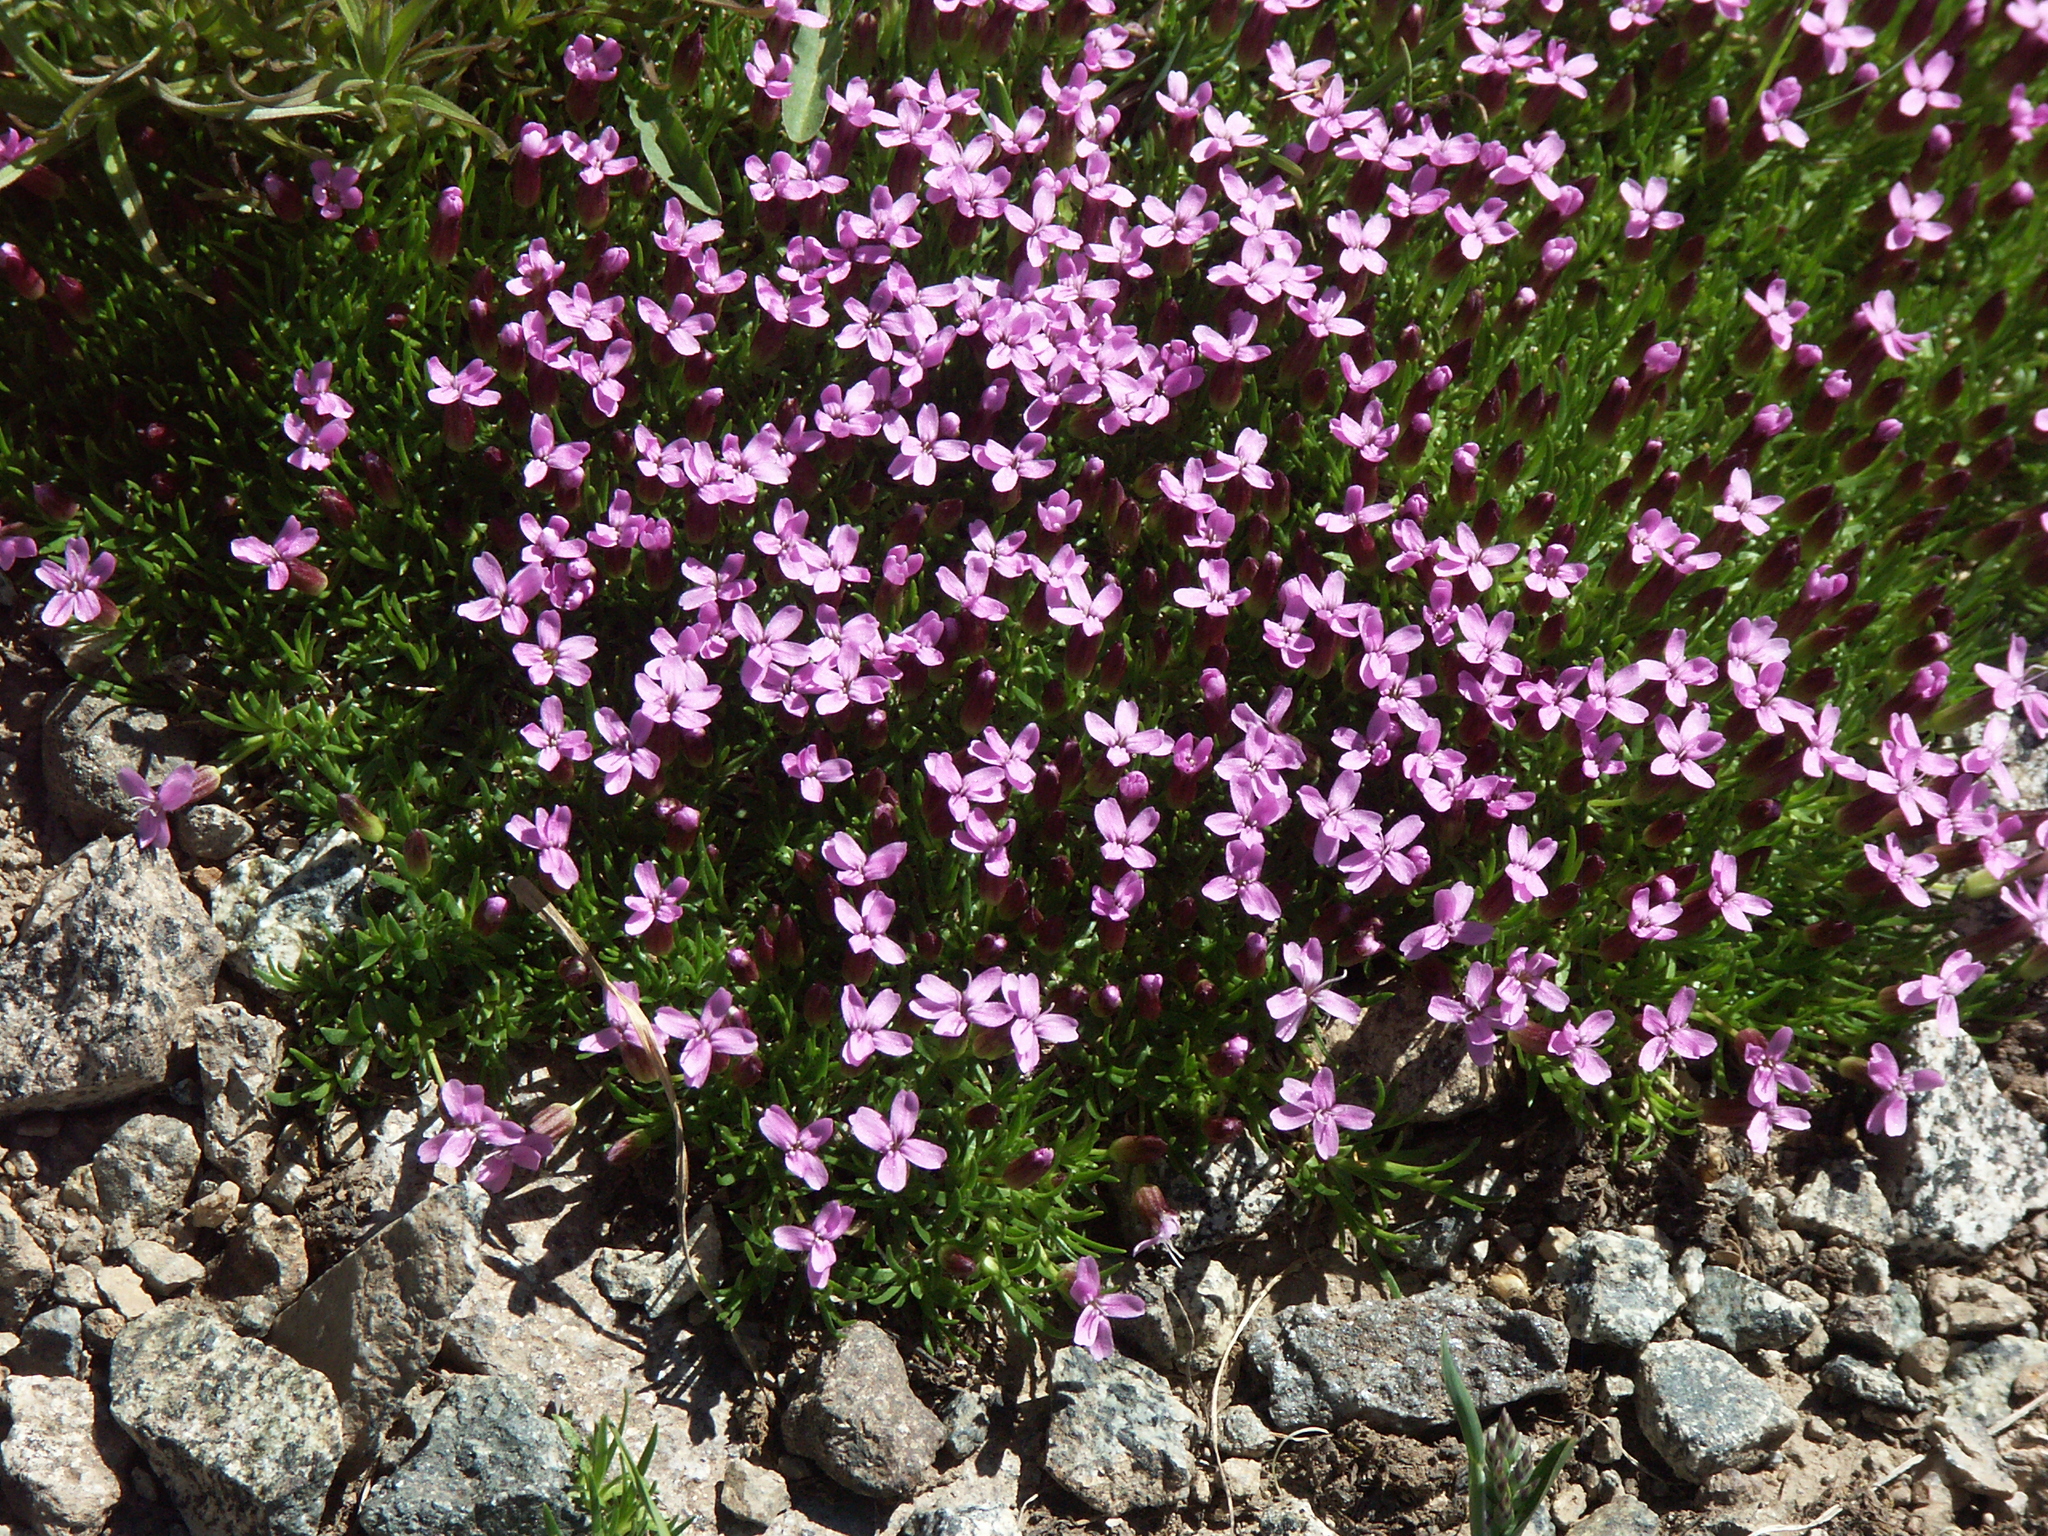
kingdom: Plantae
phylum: Tracheophyta
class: Magnoliopsida
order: Caryophyllales
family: Caryophyllaceae
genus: Silene
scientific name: Silene acaulis
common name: Moss campion
